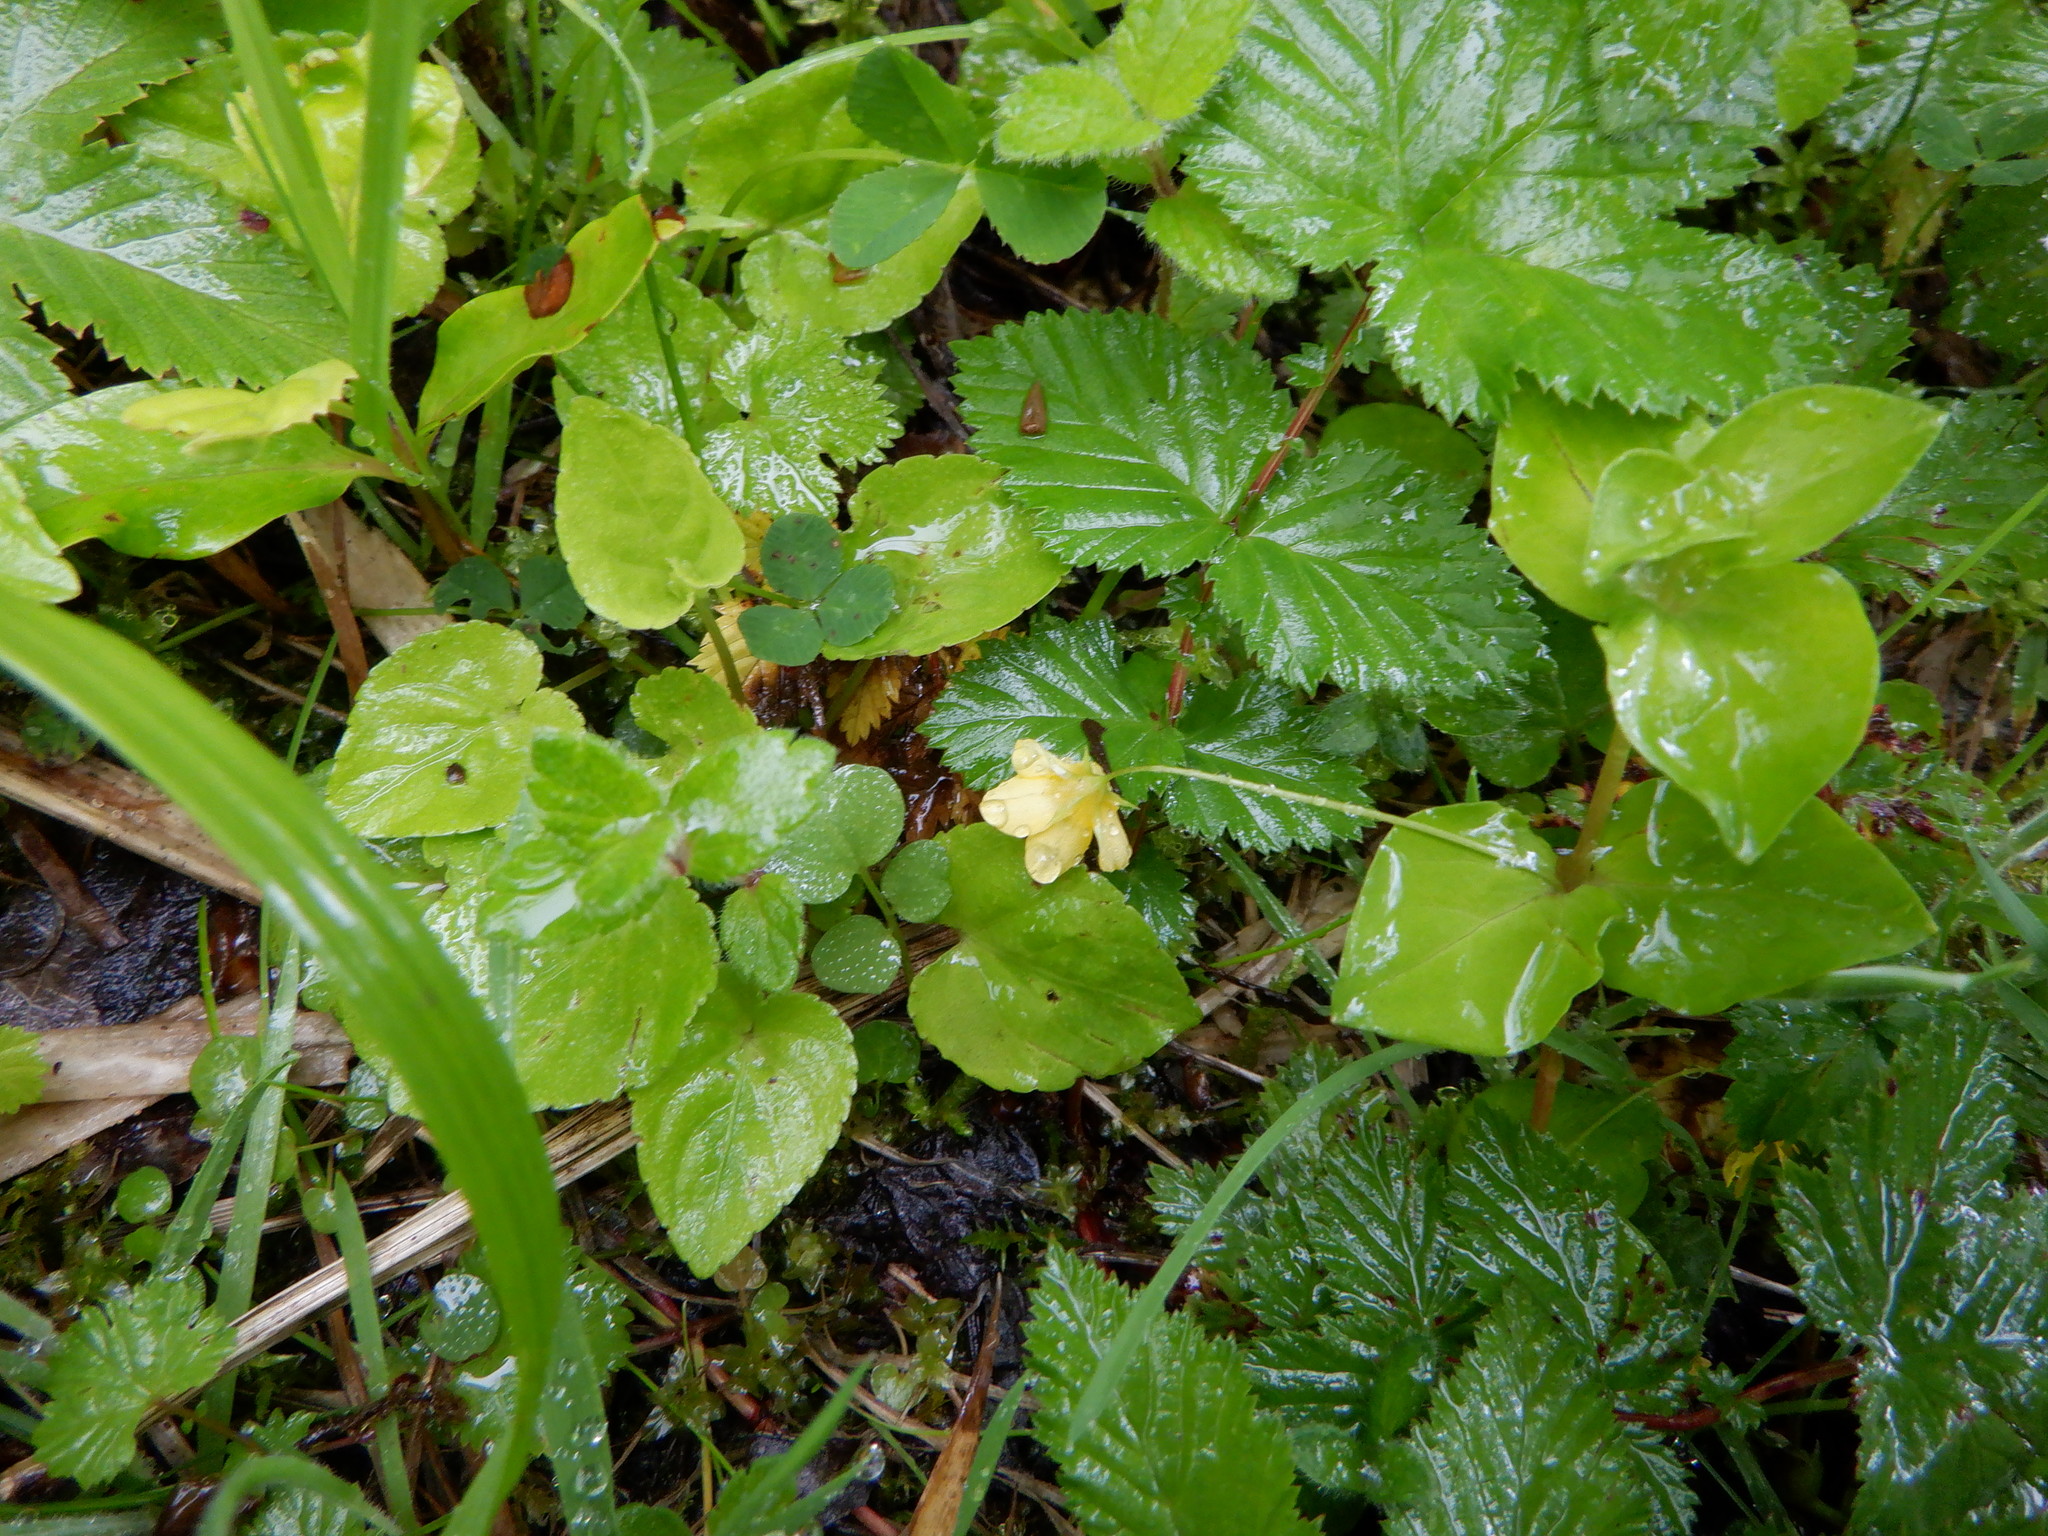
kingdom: Plantae
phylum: Tracheophyta
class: Magnoliopsida
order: Ericales
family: Primulaceae
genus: Lysimachia
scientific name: Lysimachia nemorum
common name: Yellow pimpernel
